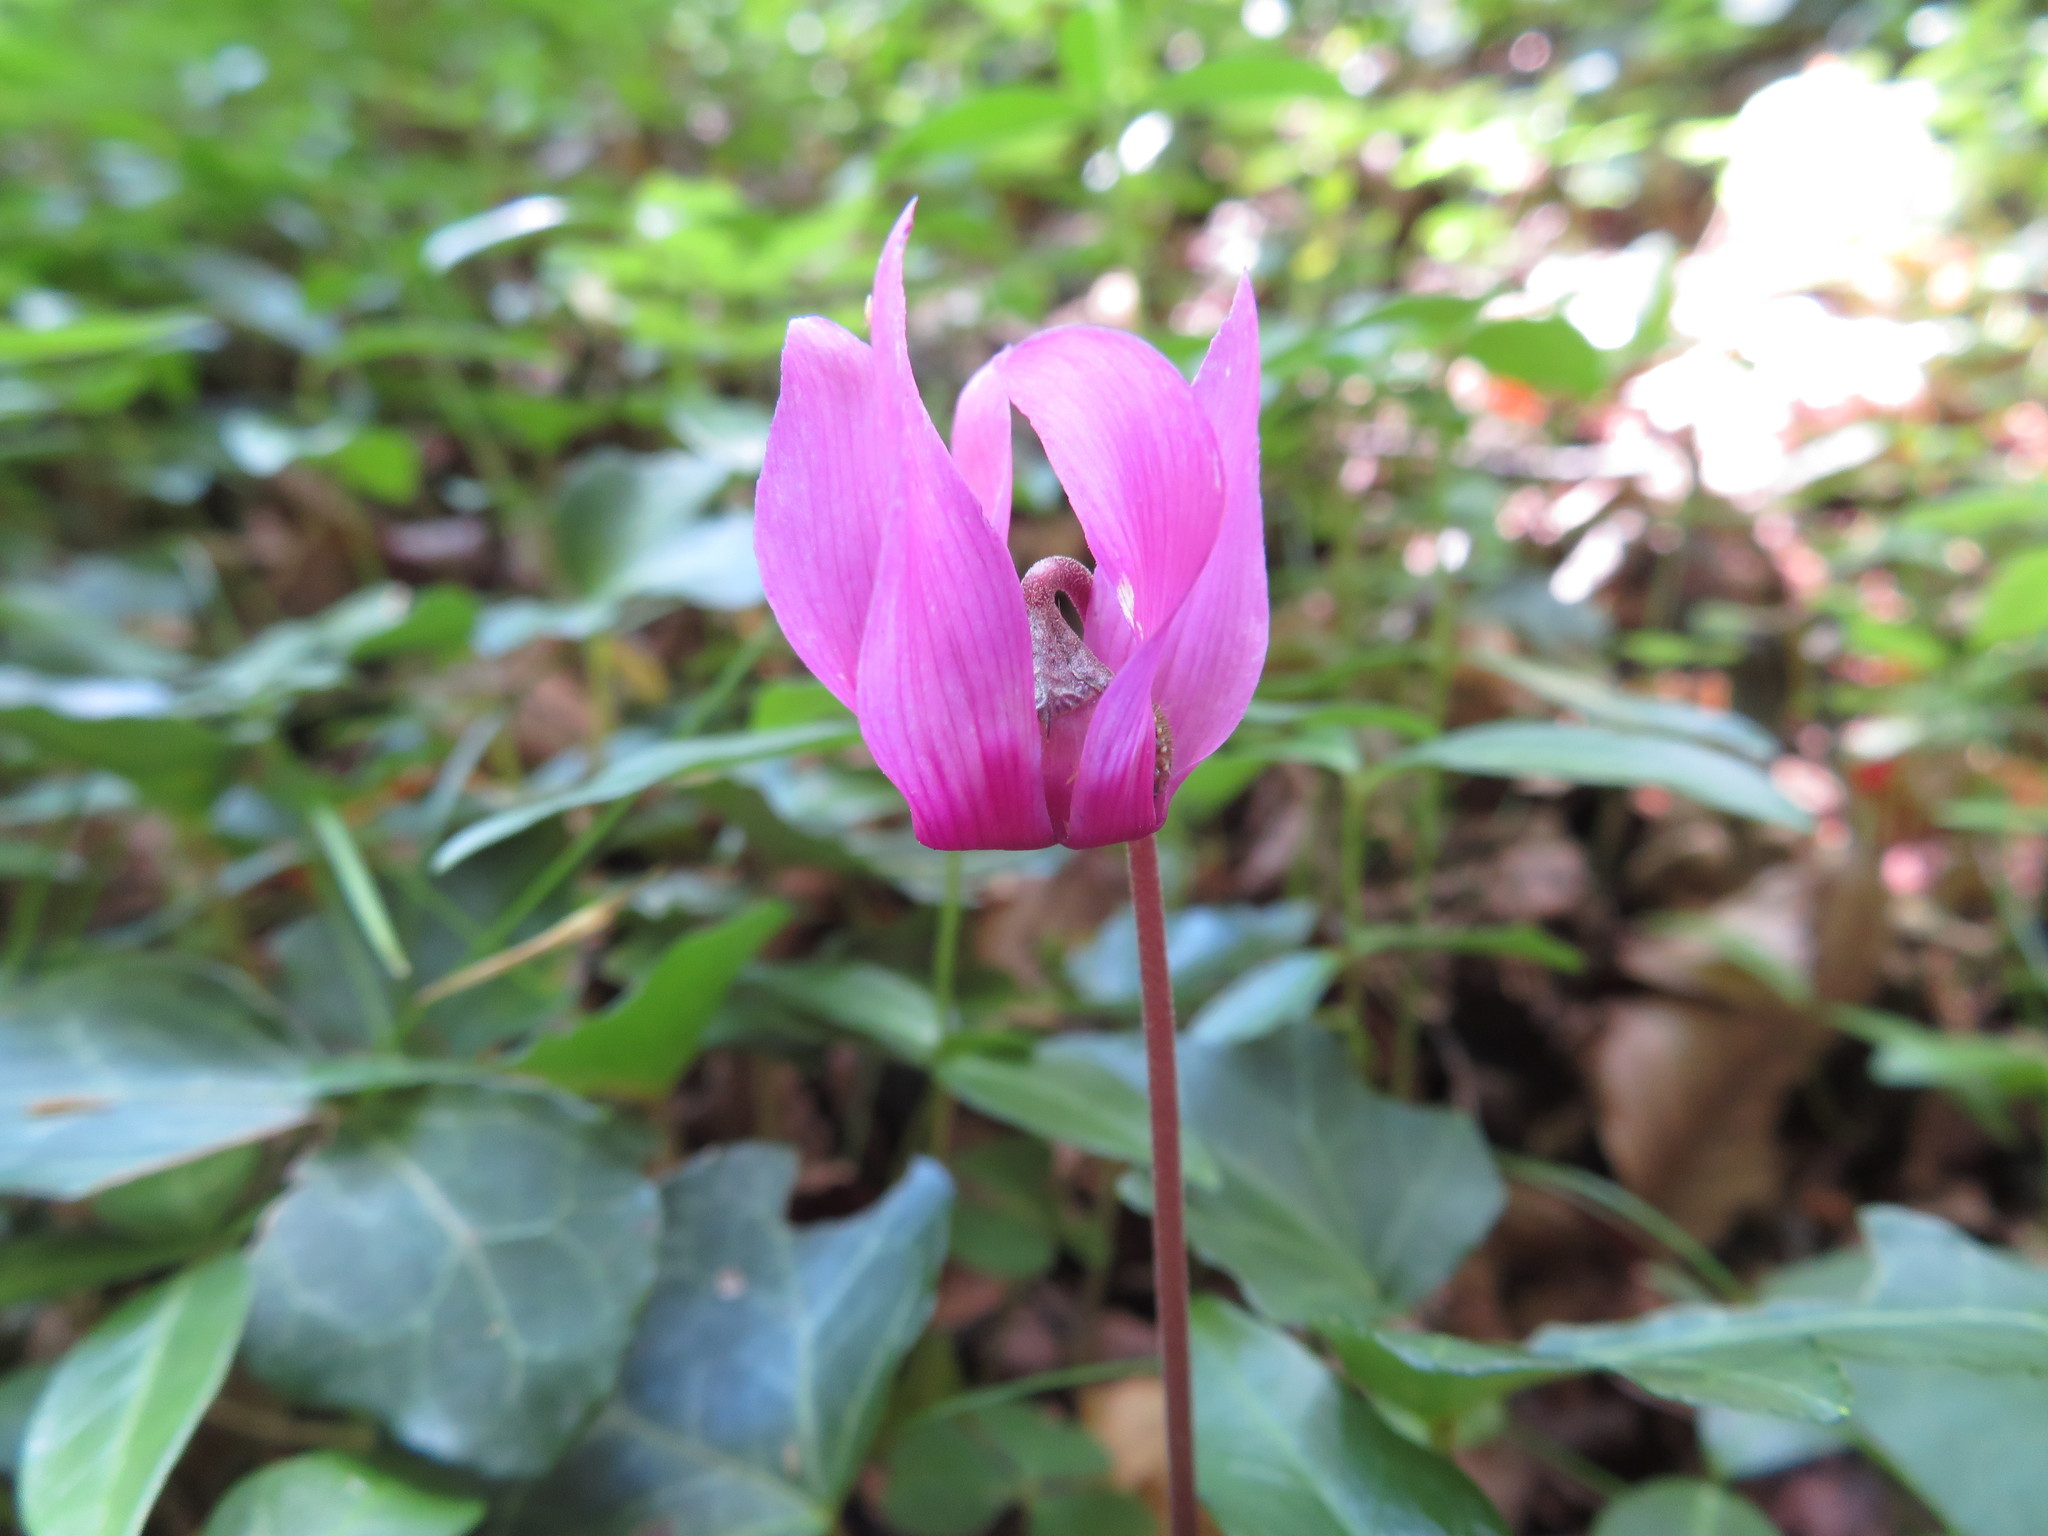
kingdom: Plantae
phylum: Tracheophyta
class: Magnoliopsida
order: Ericales
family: Primulaceae
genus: Cyclamen
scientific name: Cyclamen purpurascens
